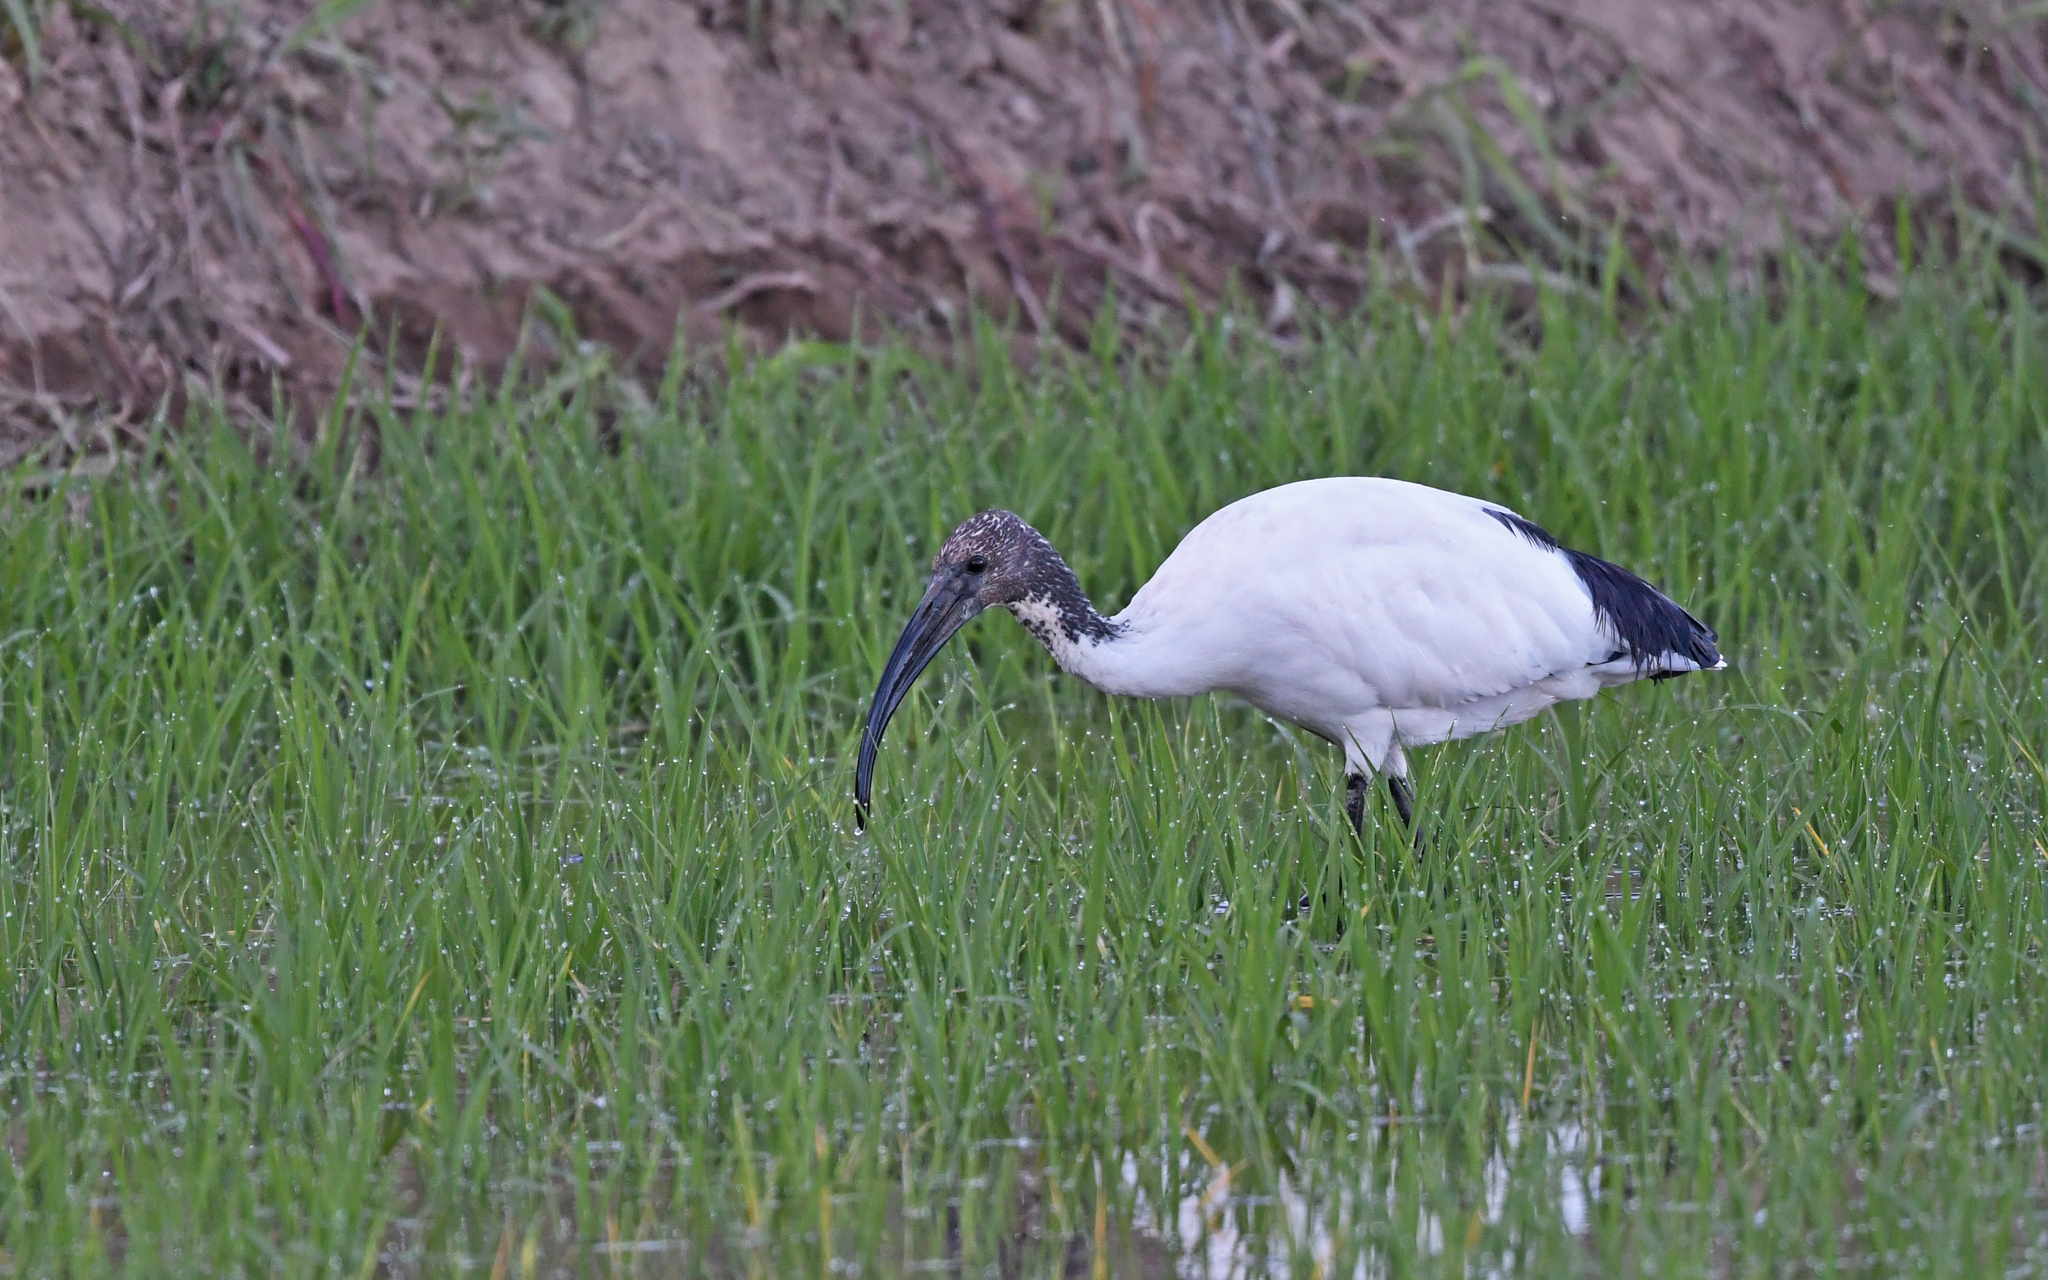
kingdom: Animalia
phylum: Chordata
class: Aves
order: Pelecaniformes
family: Threskiornithidae
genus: Threskiornis
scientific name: Threskiornis aethiopicus
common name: Sacred ibis
